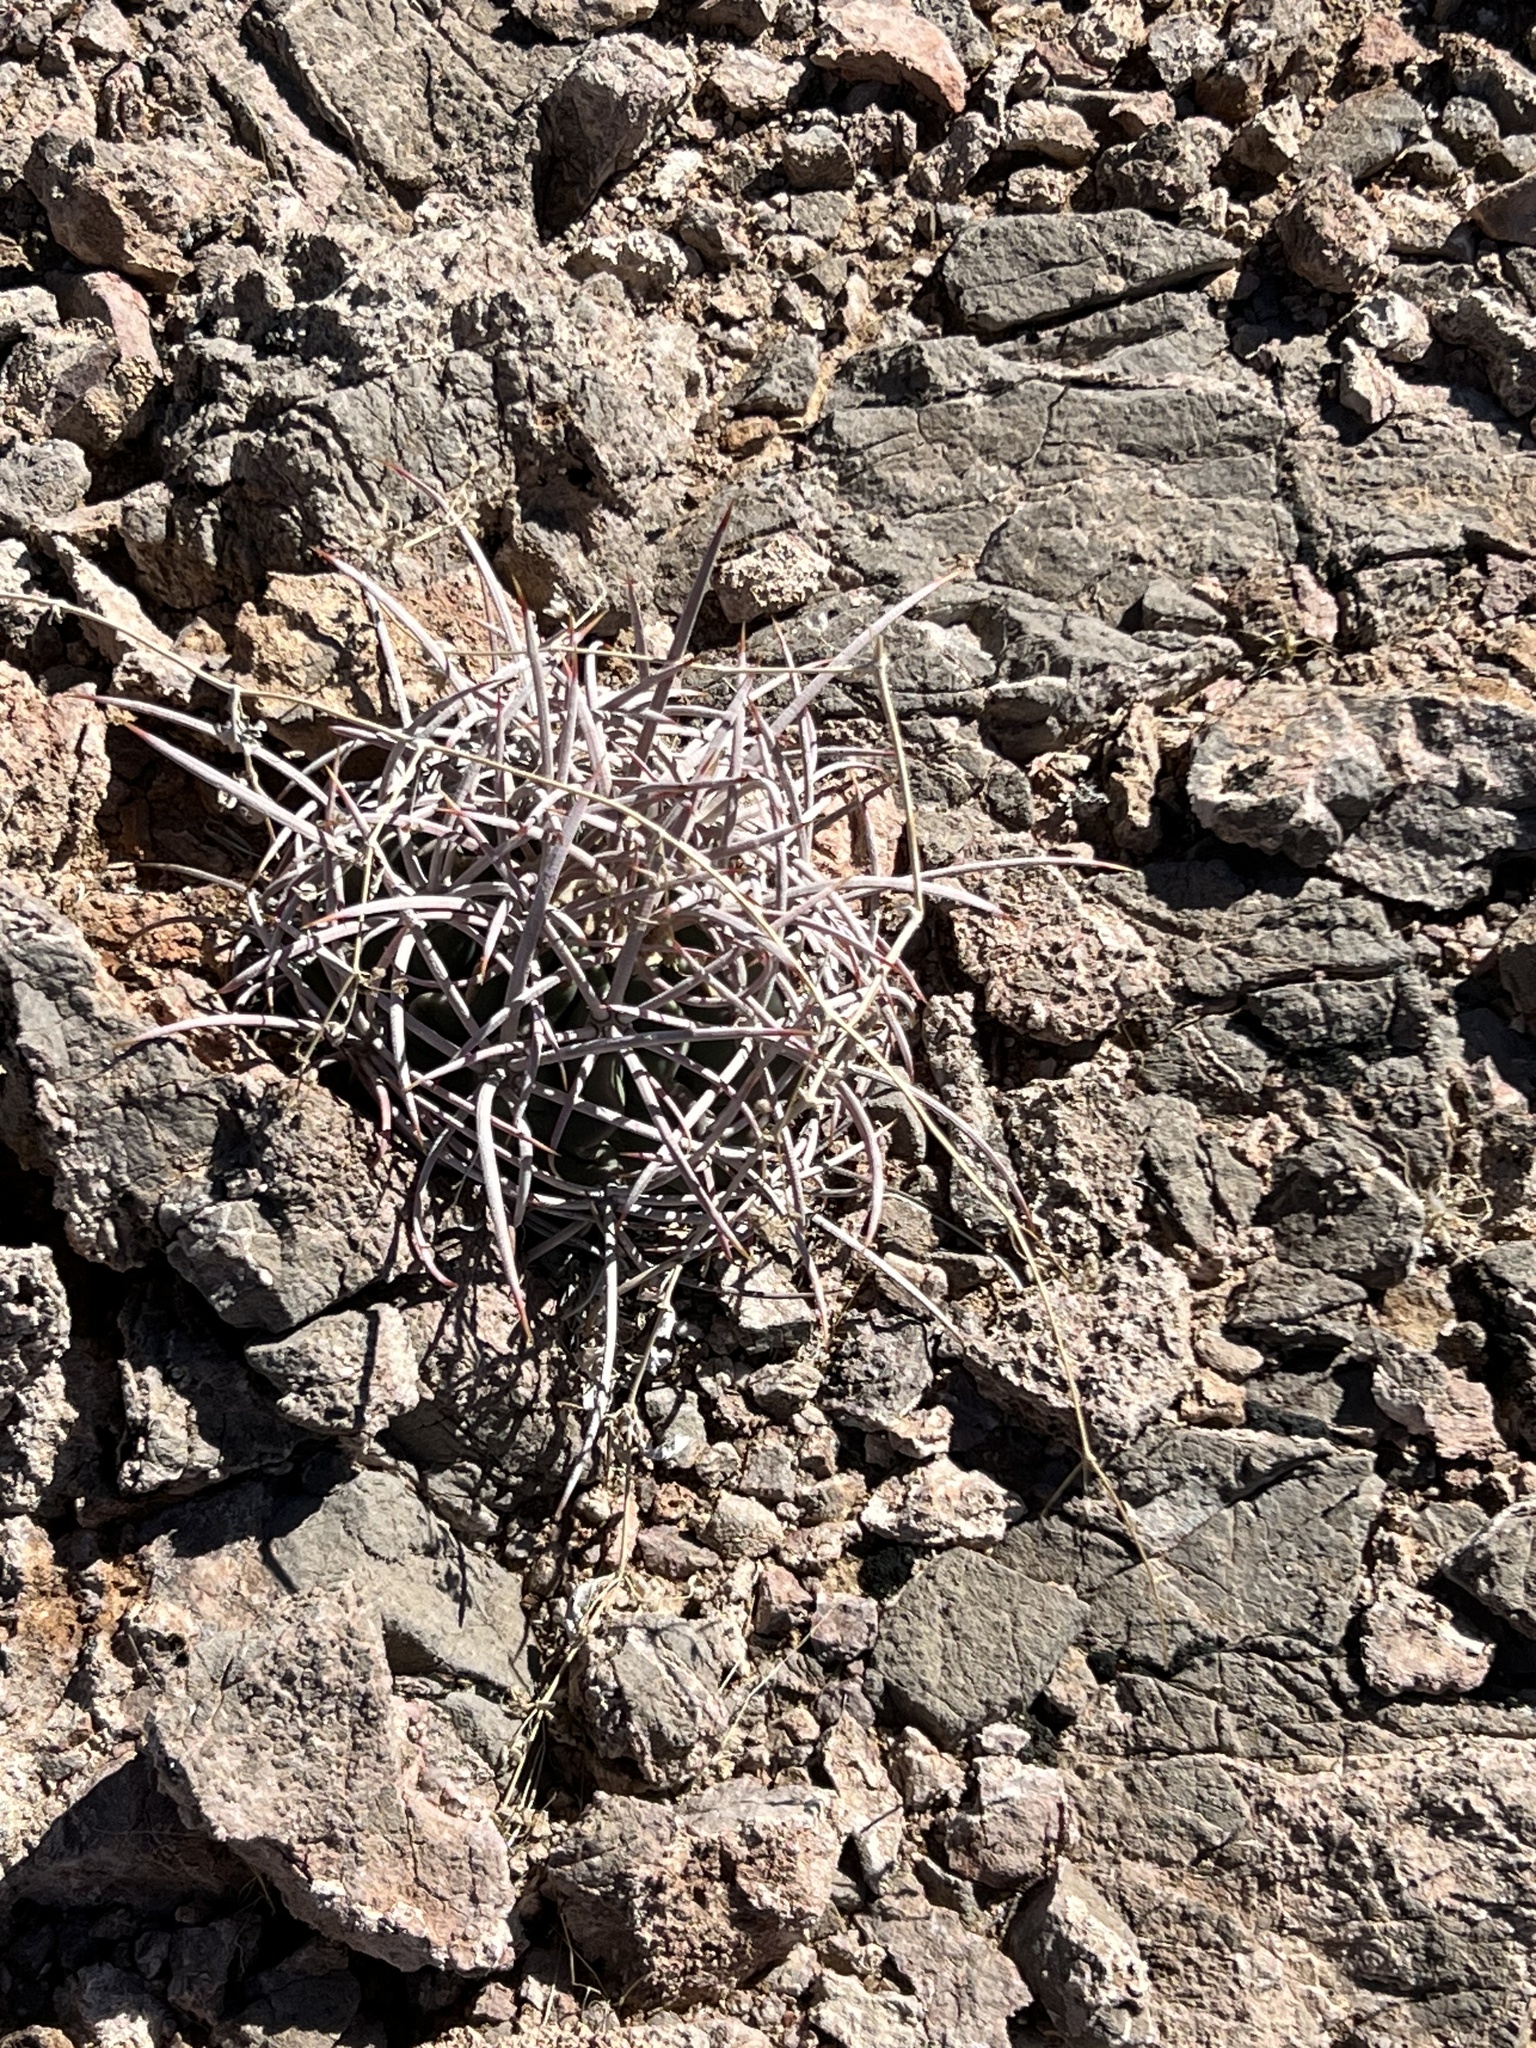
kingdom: Plantae
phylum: Tracheophyta
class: Magnoliopsida
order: Caryophyllales
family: Cactaceae
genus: Echinocactus
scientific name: Echinocactus polycephalus
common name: Cottontop cactus
